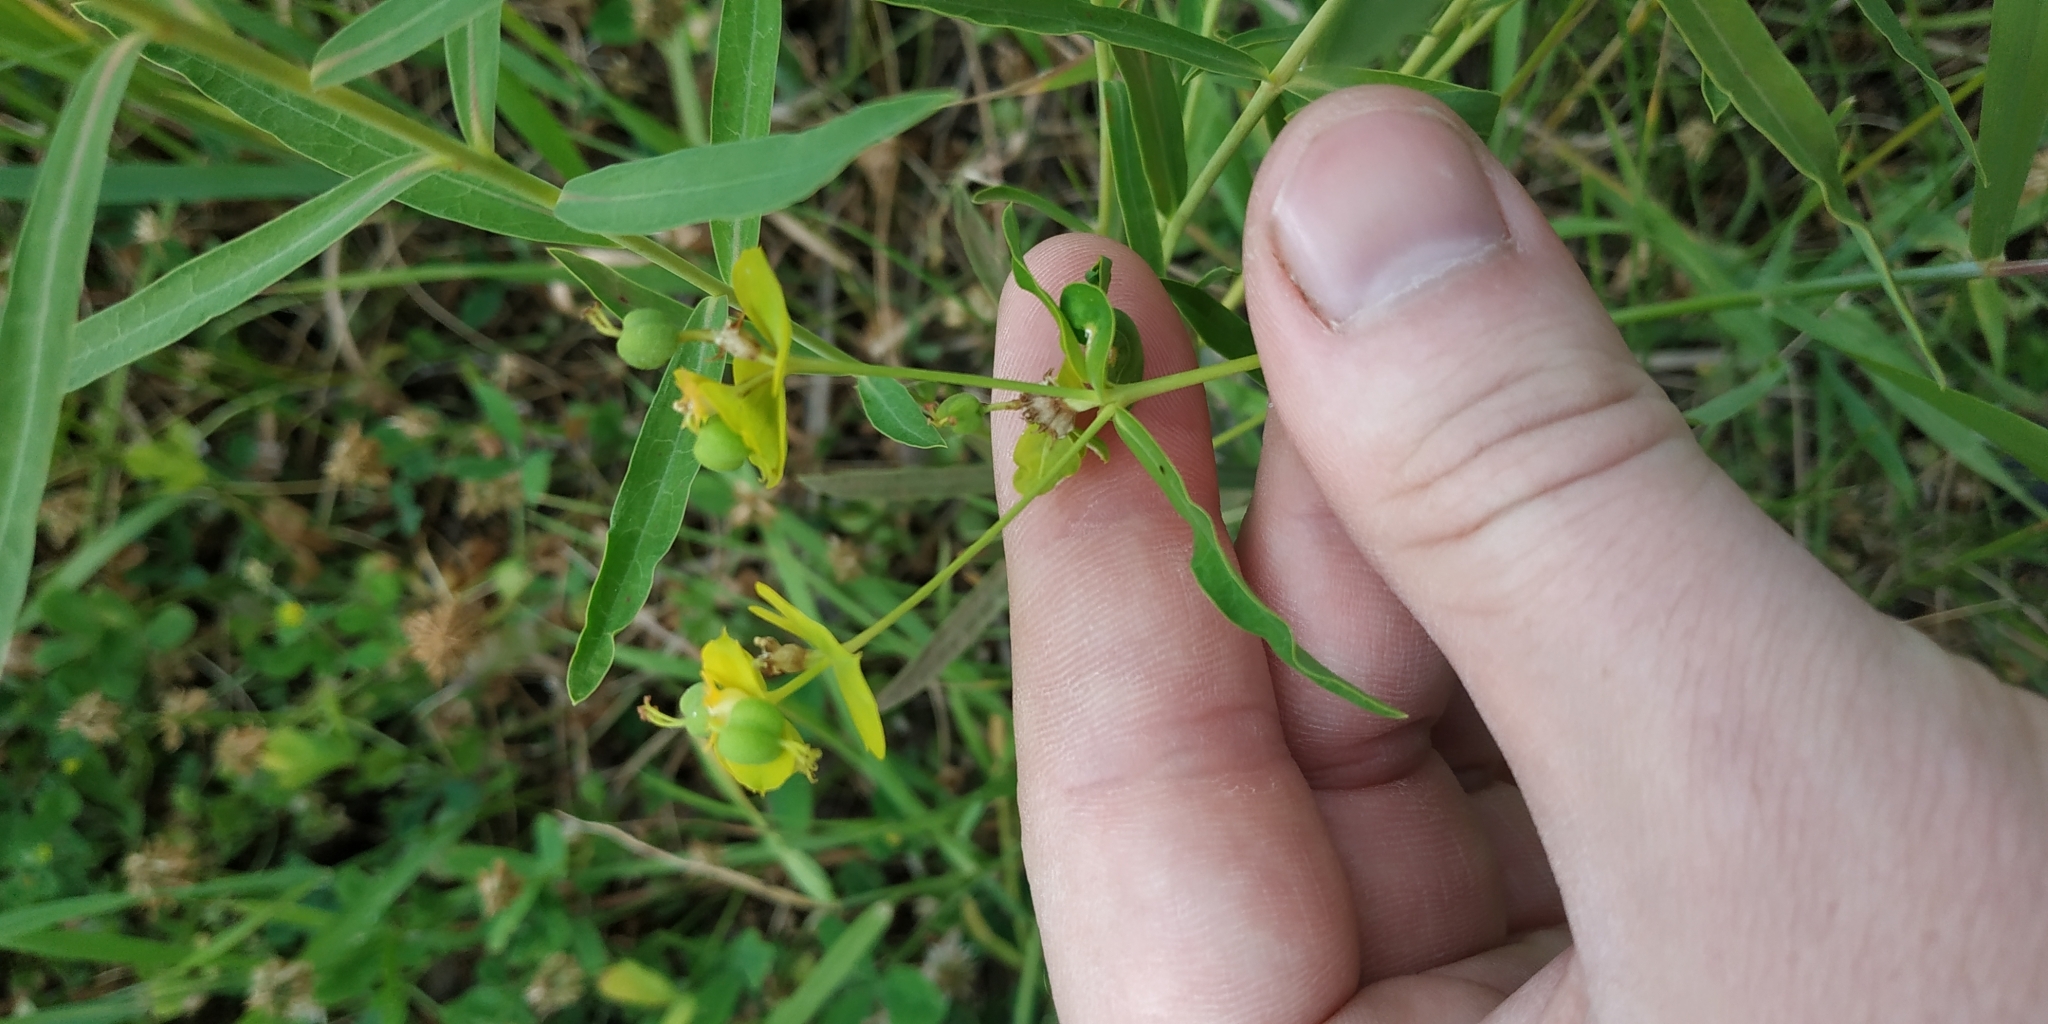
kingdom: Plantae
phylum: Tracheophyta
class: Magnoliopsida
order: Malpighiales
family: Euphorbiaceae
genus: Euphorbia
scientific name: Euphorbia virgata
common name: Leafy spurge
